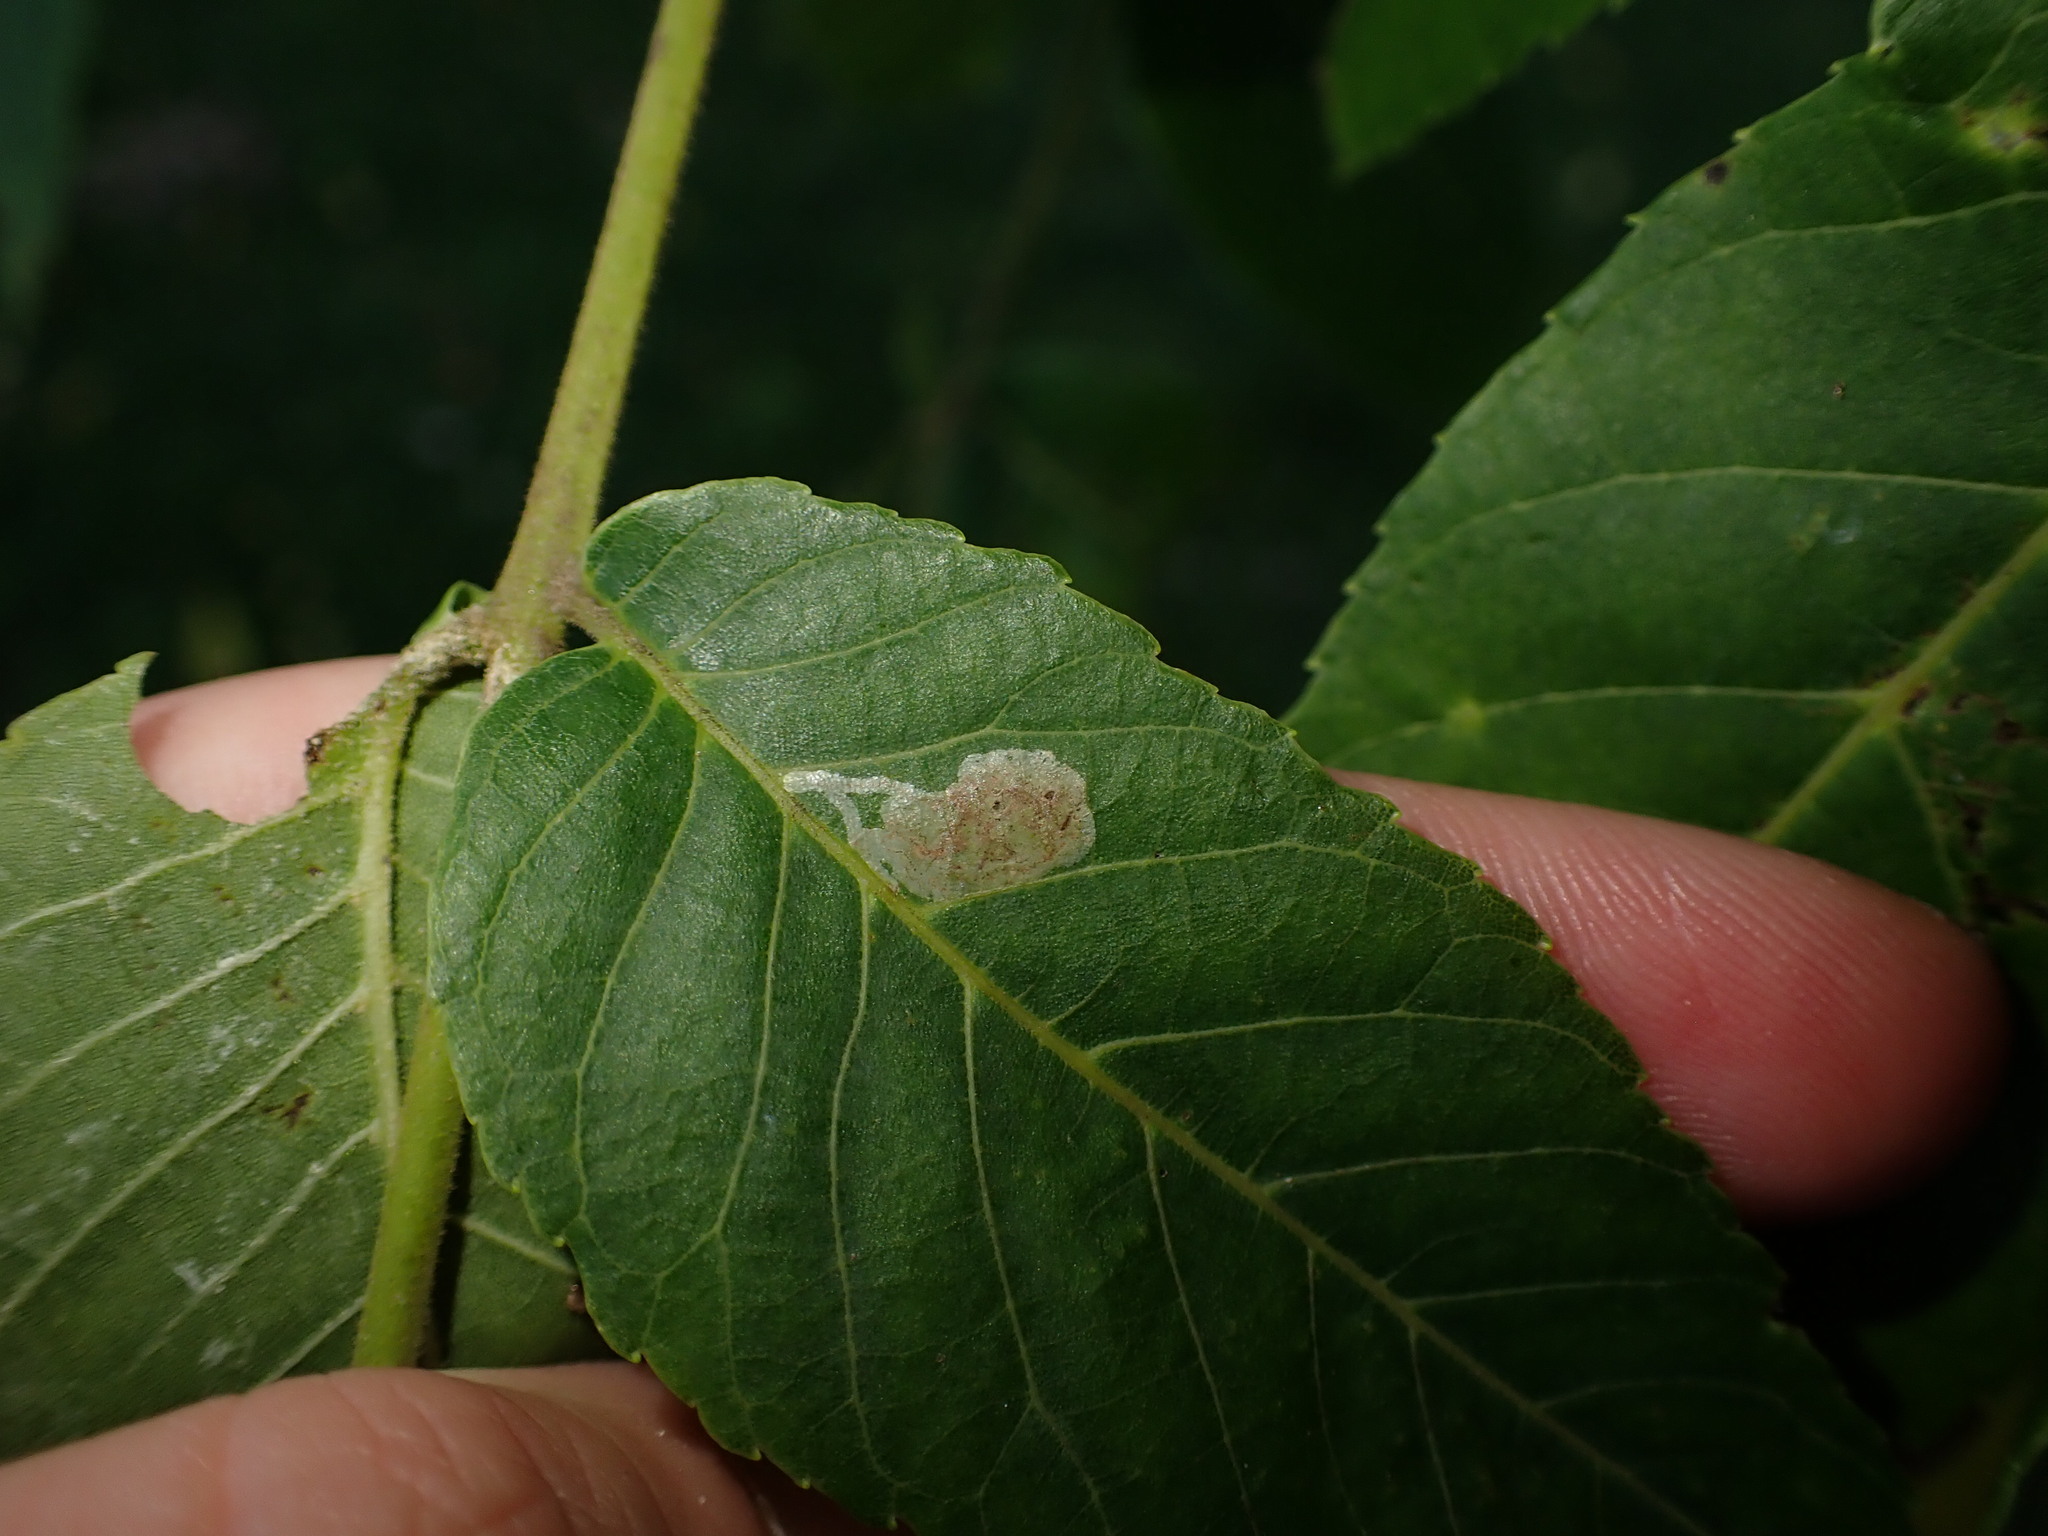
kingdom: Animalia
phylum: Arthropoda
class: Insecta
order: Lepidoptera
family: Gracillariidae
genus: Caloptilia
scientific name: Caloptilia blandella
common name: Walnut caloptilia moth
